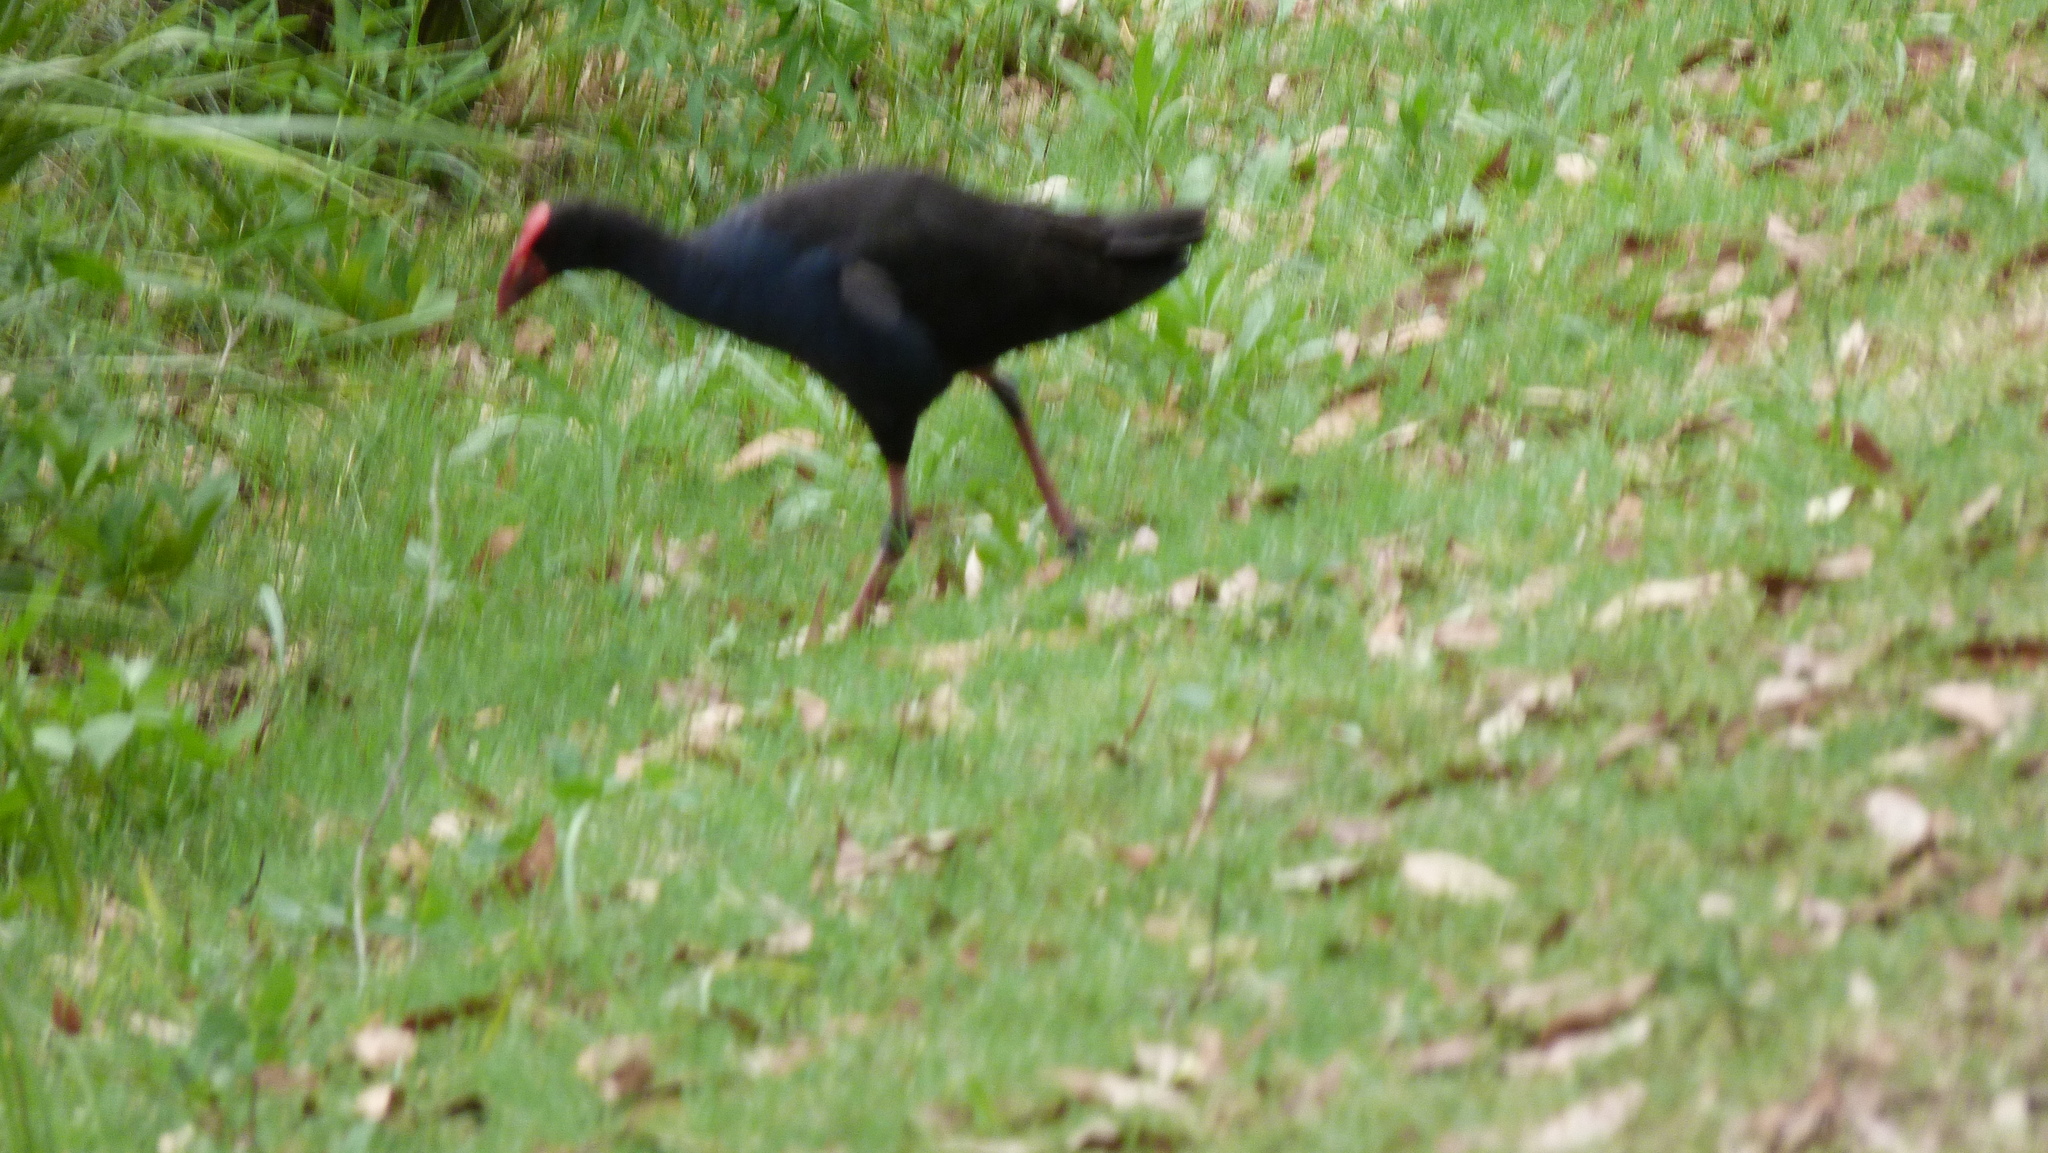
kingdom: Animalia
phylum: Chordata
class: Aves
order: Gruiformes
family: Rallidae
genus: Porphyrio
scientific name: Porphyrio melanotus
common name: Australasian swamphen
